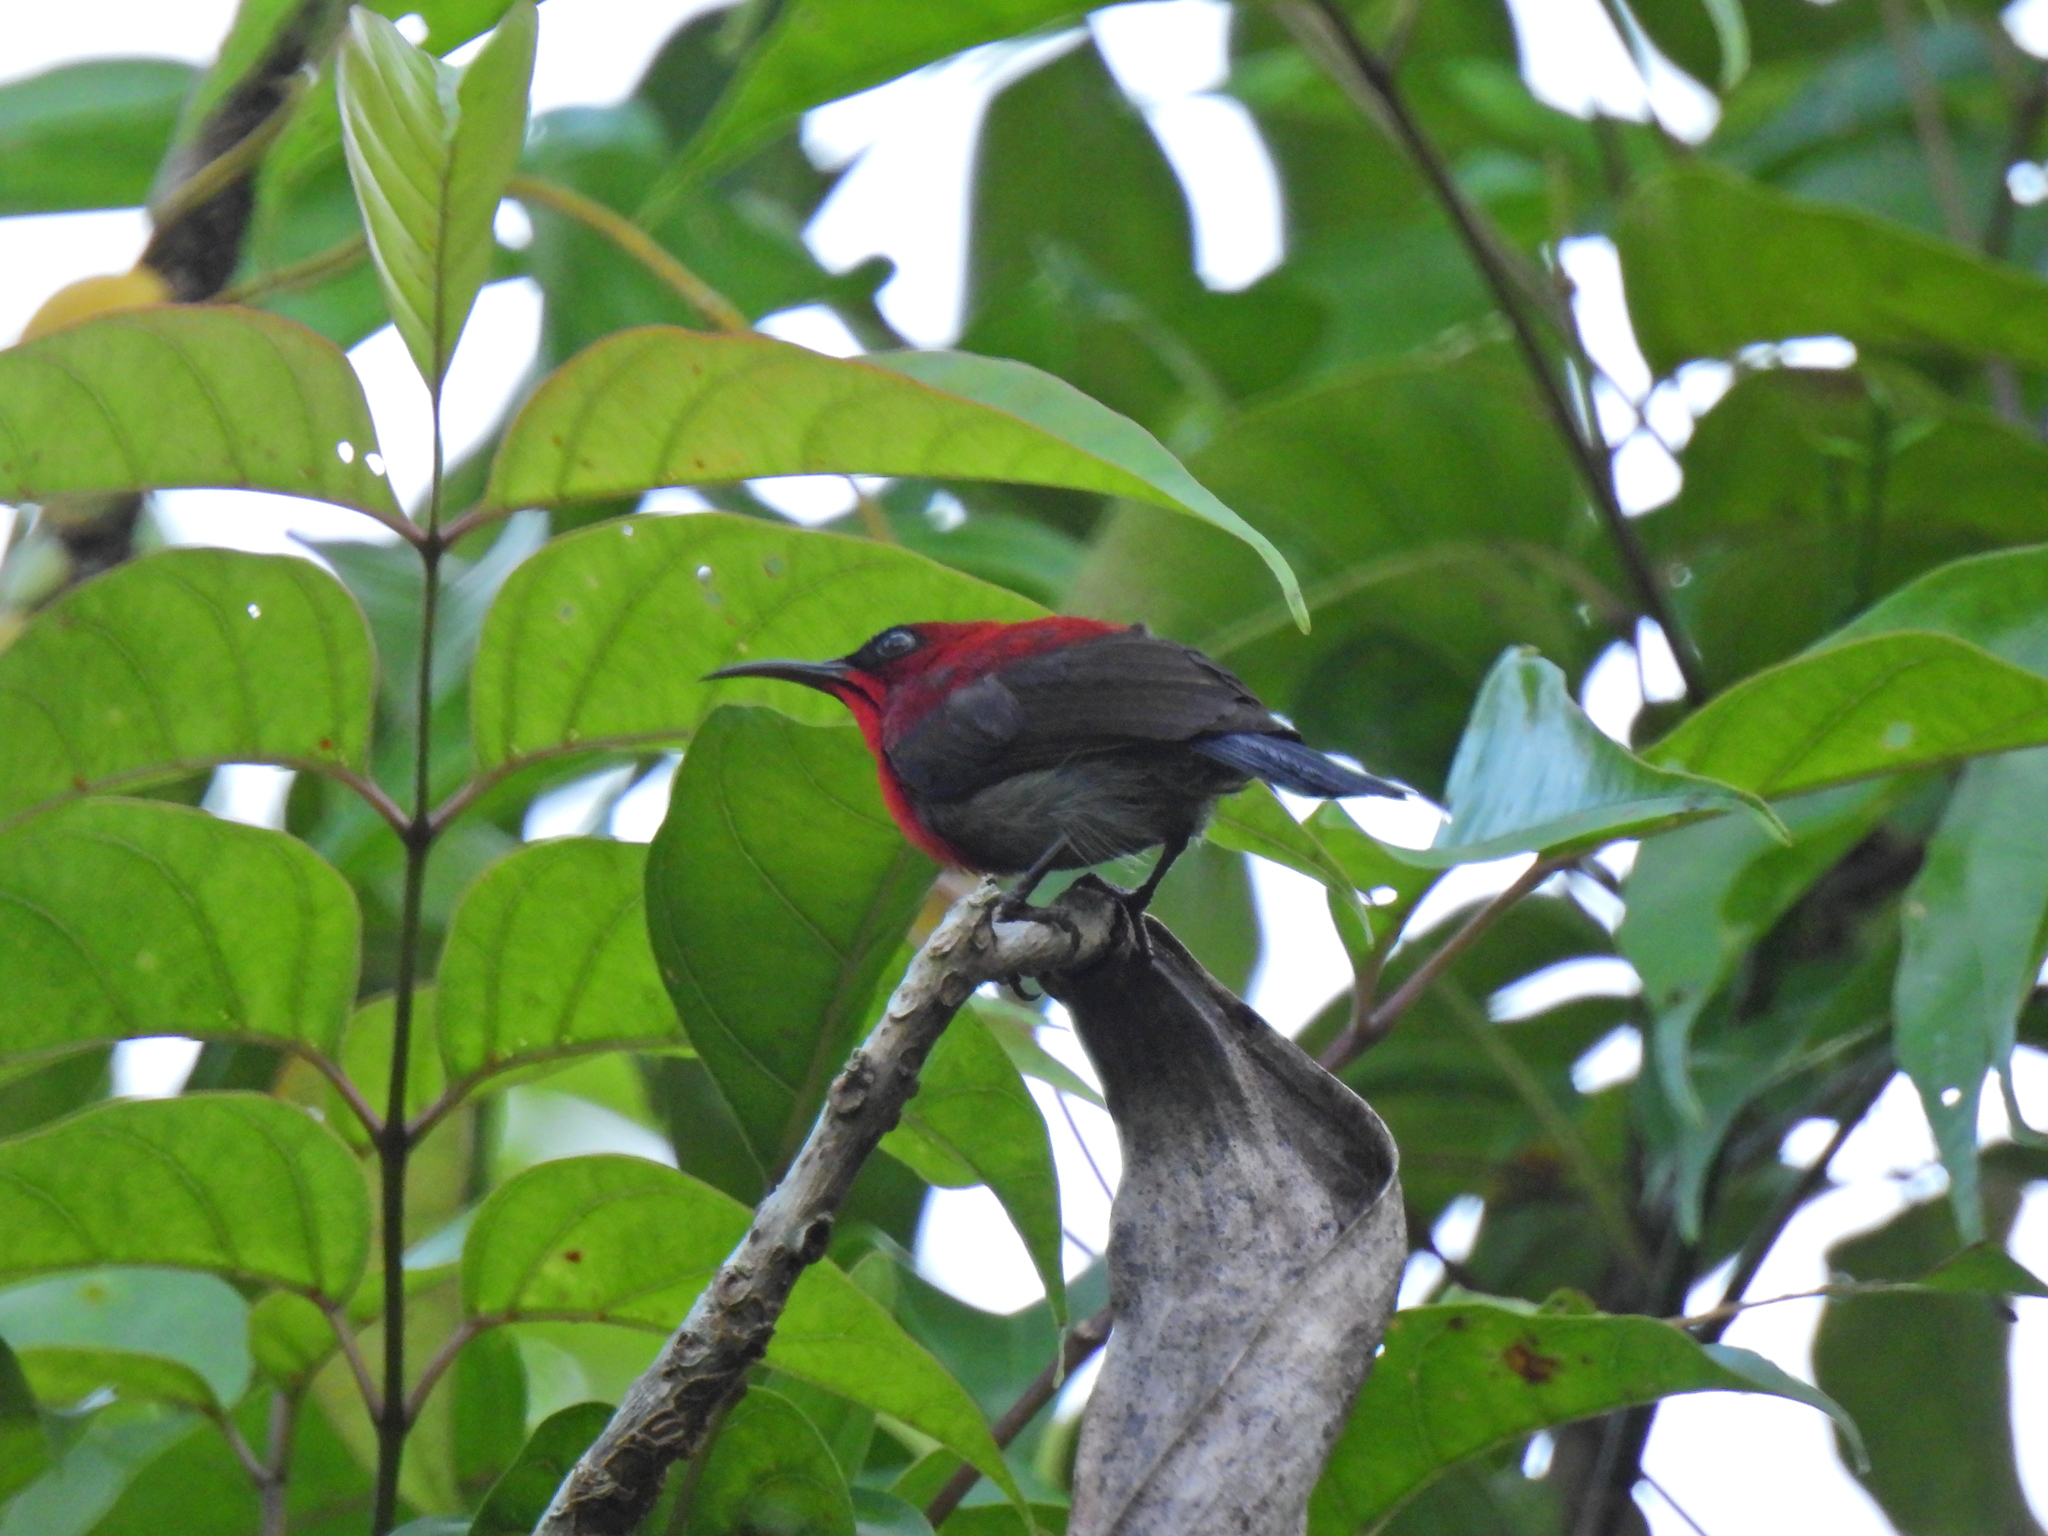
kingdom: Animalia
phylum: Chordata
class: Aves
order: Passeriformes
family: Nectariniidae
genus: Aethopyga
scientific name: Aethopyga siparaja
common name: Crimson sunbird
